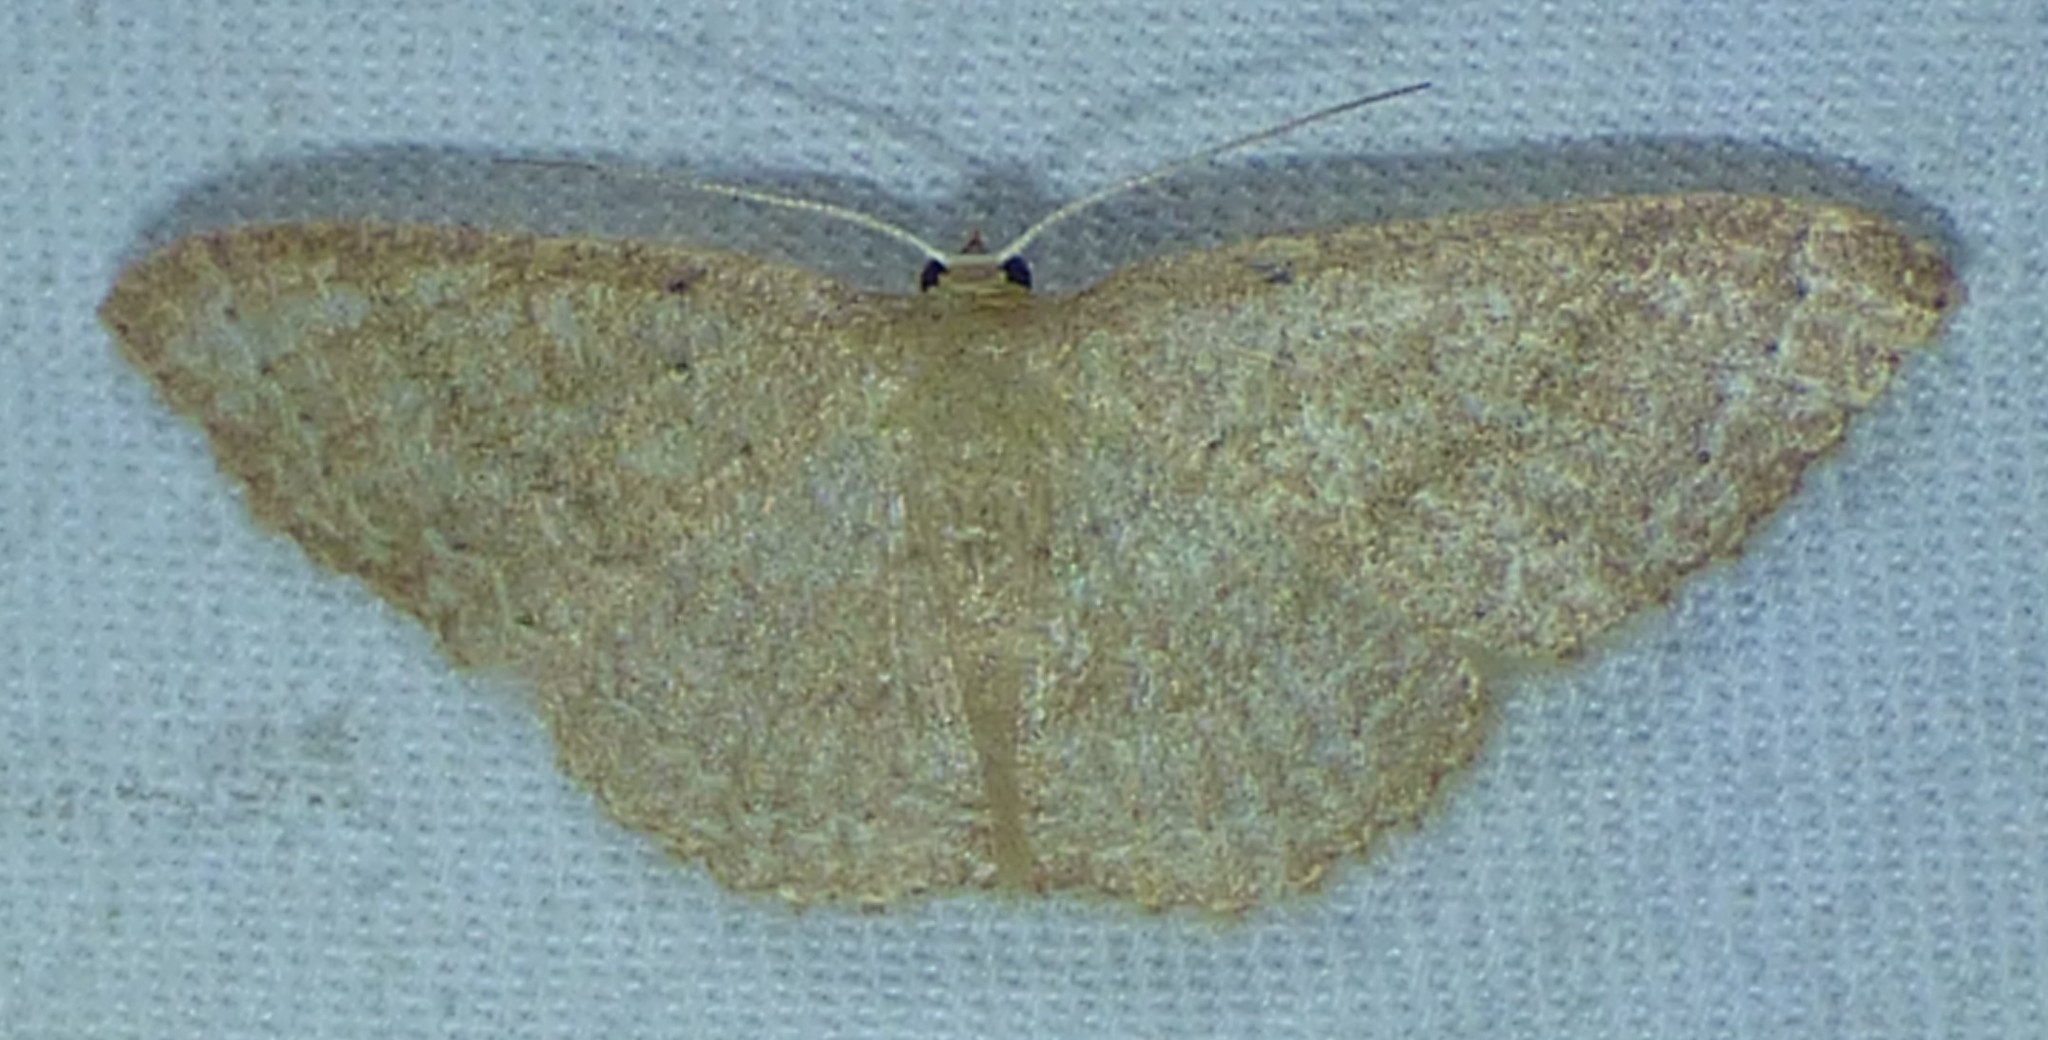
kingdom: Animalia
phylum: Arthropoda
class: Insecta
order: Lepidoptera
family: Geometridae
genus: Pleuroprucha
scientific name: Pleuroprucha insulsaria
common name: Common tan wave
